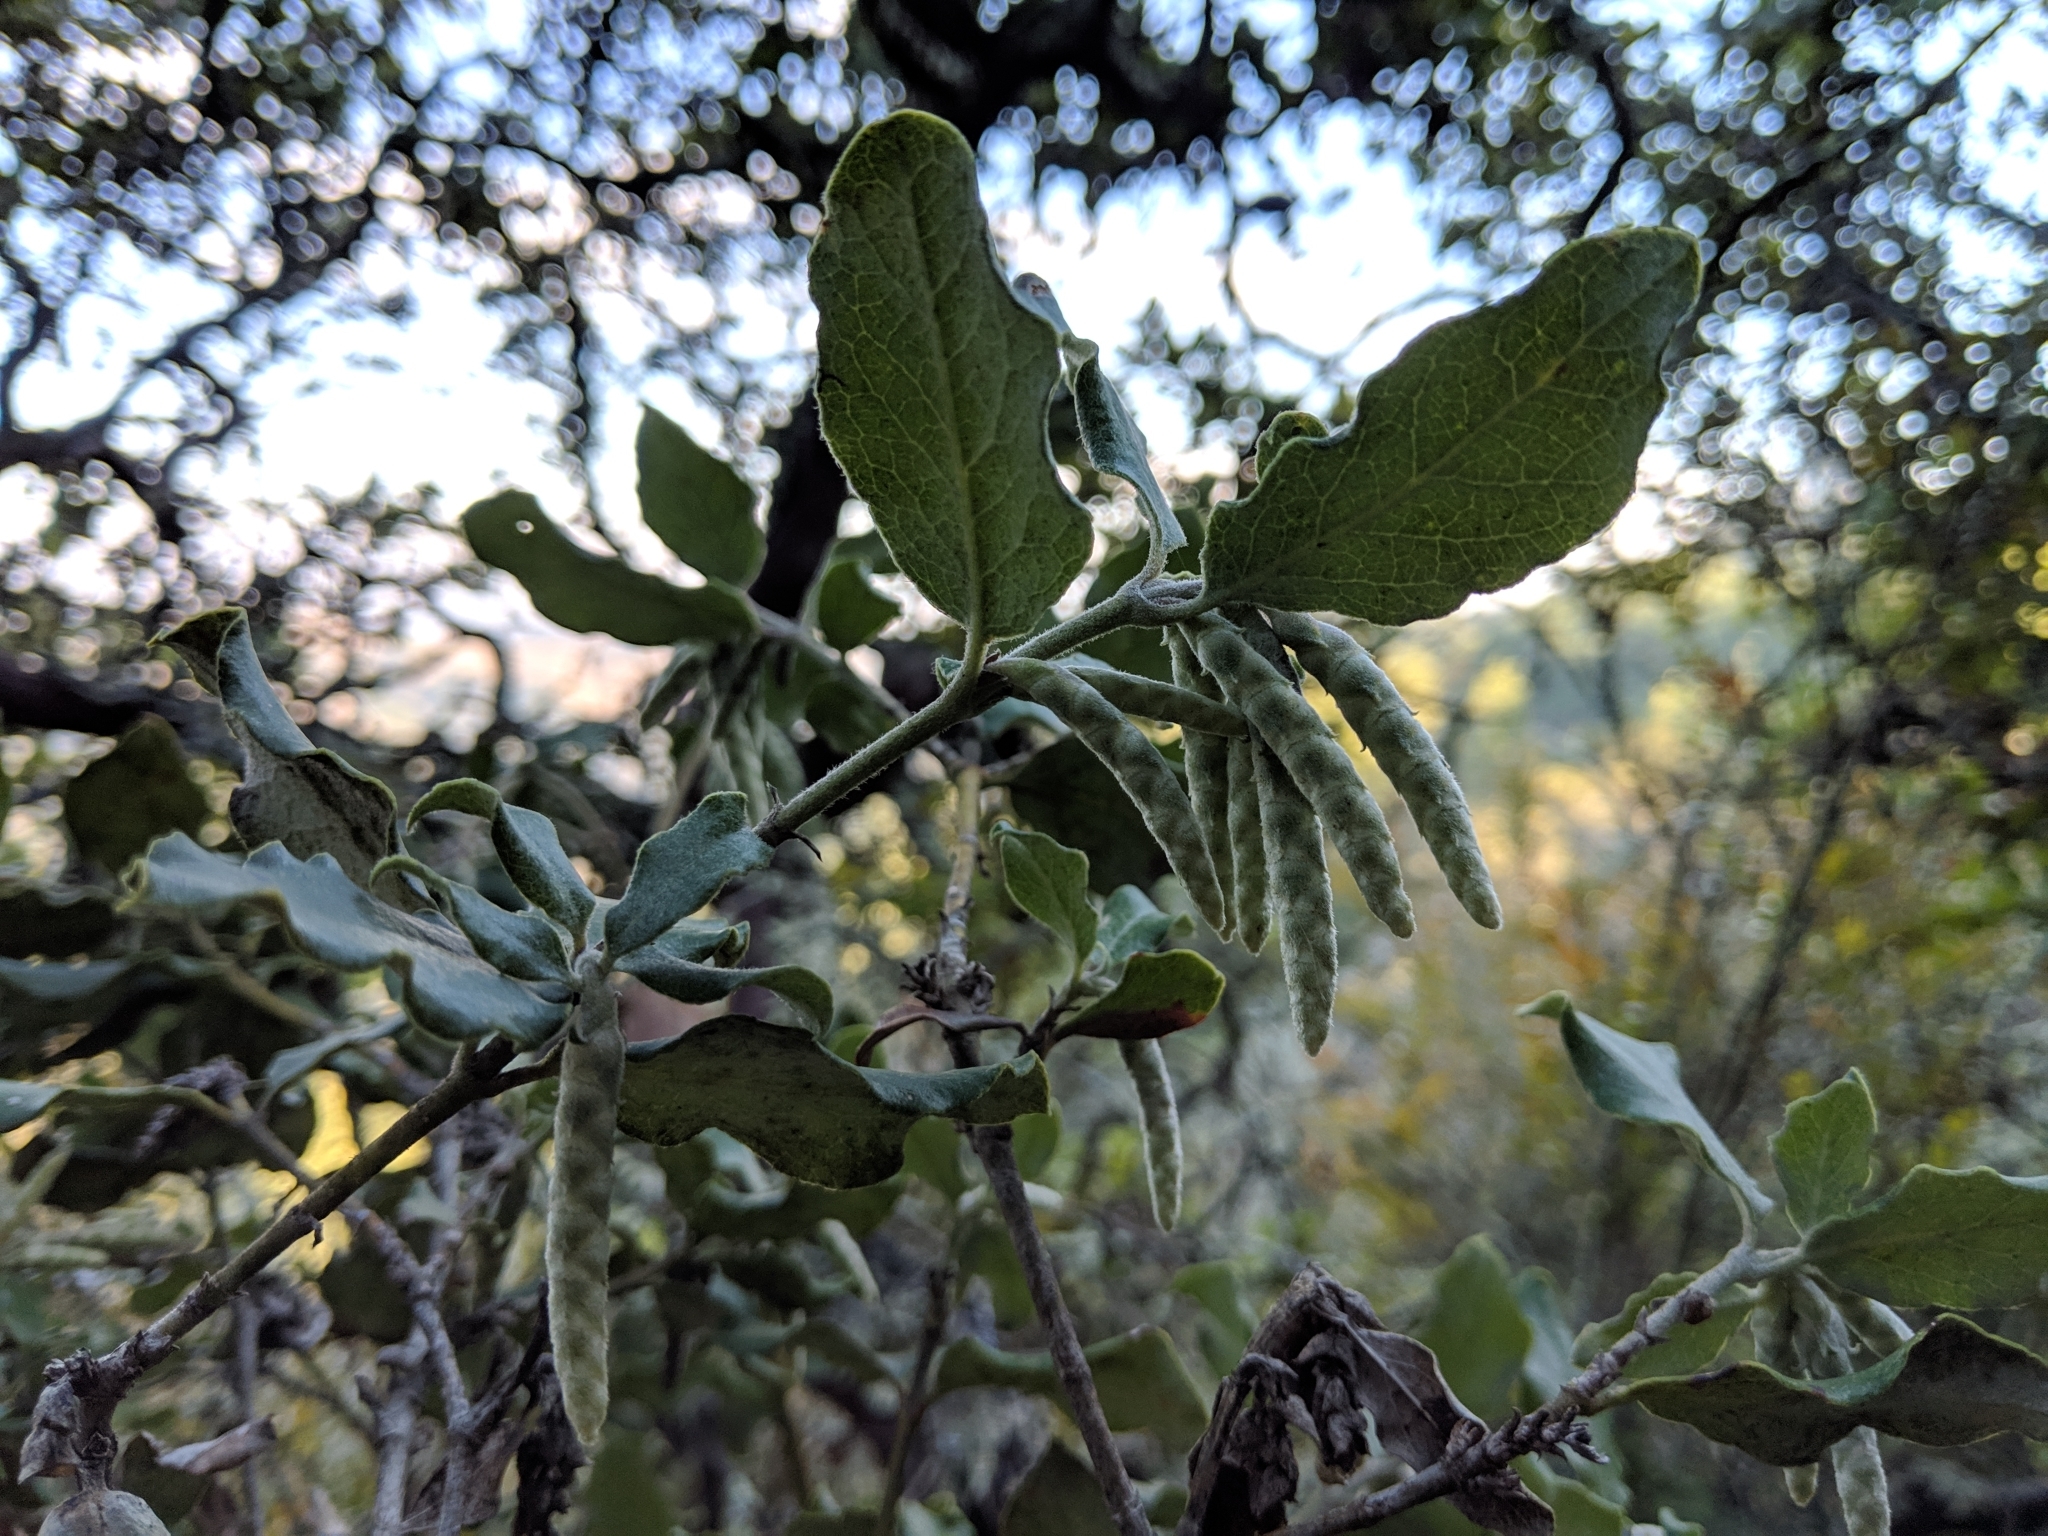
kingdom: Plantae
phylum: Tracheophyta
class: Magnoliopsida
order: Garryales
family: Garryaceae
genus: Garrya
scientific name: Garrya elliptica
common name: Silk-tassel
